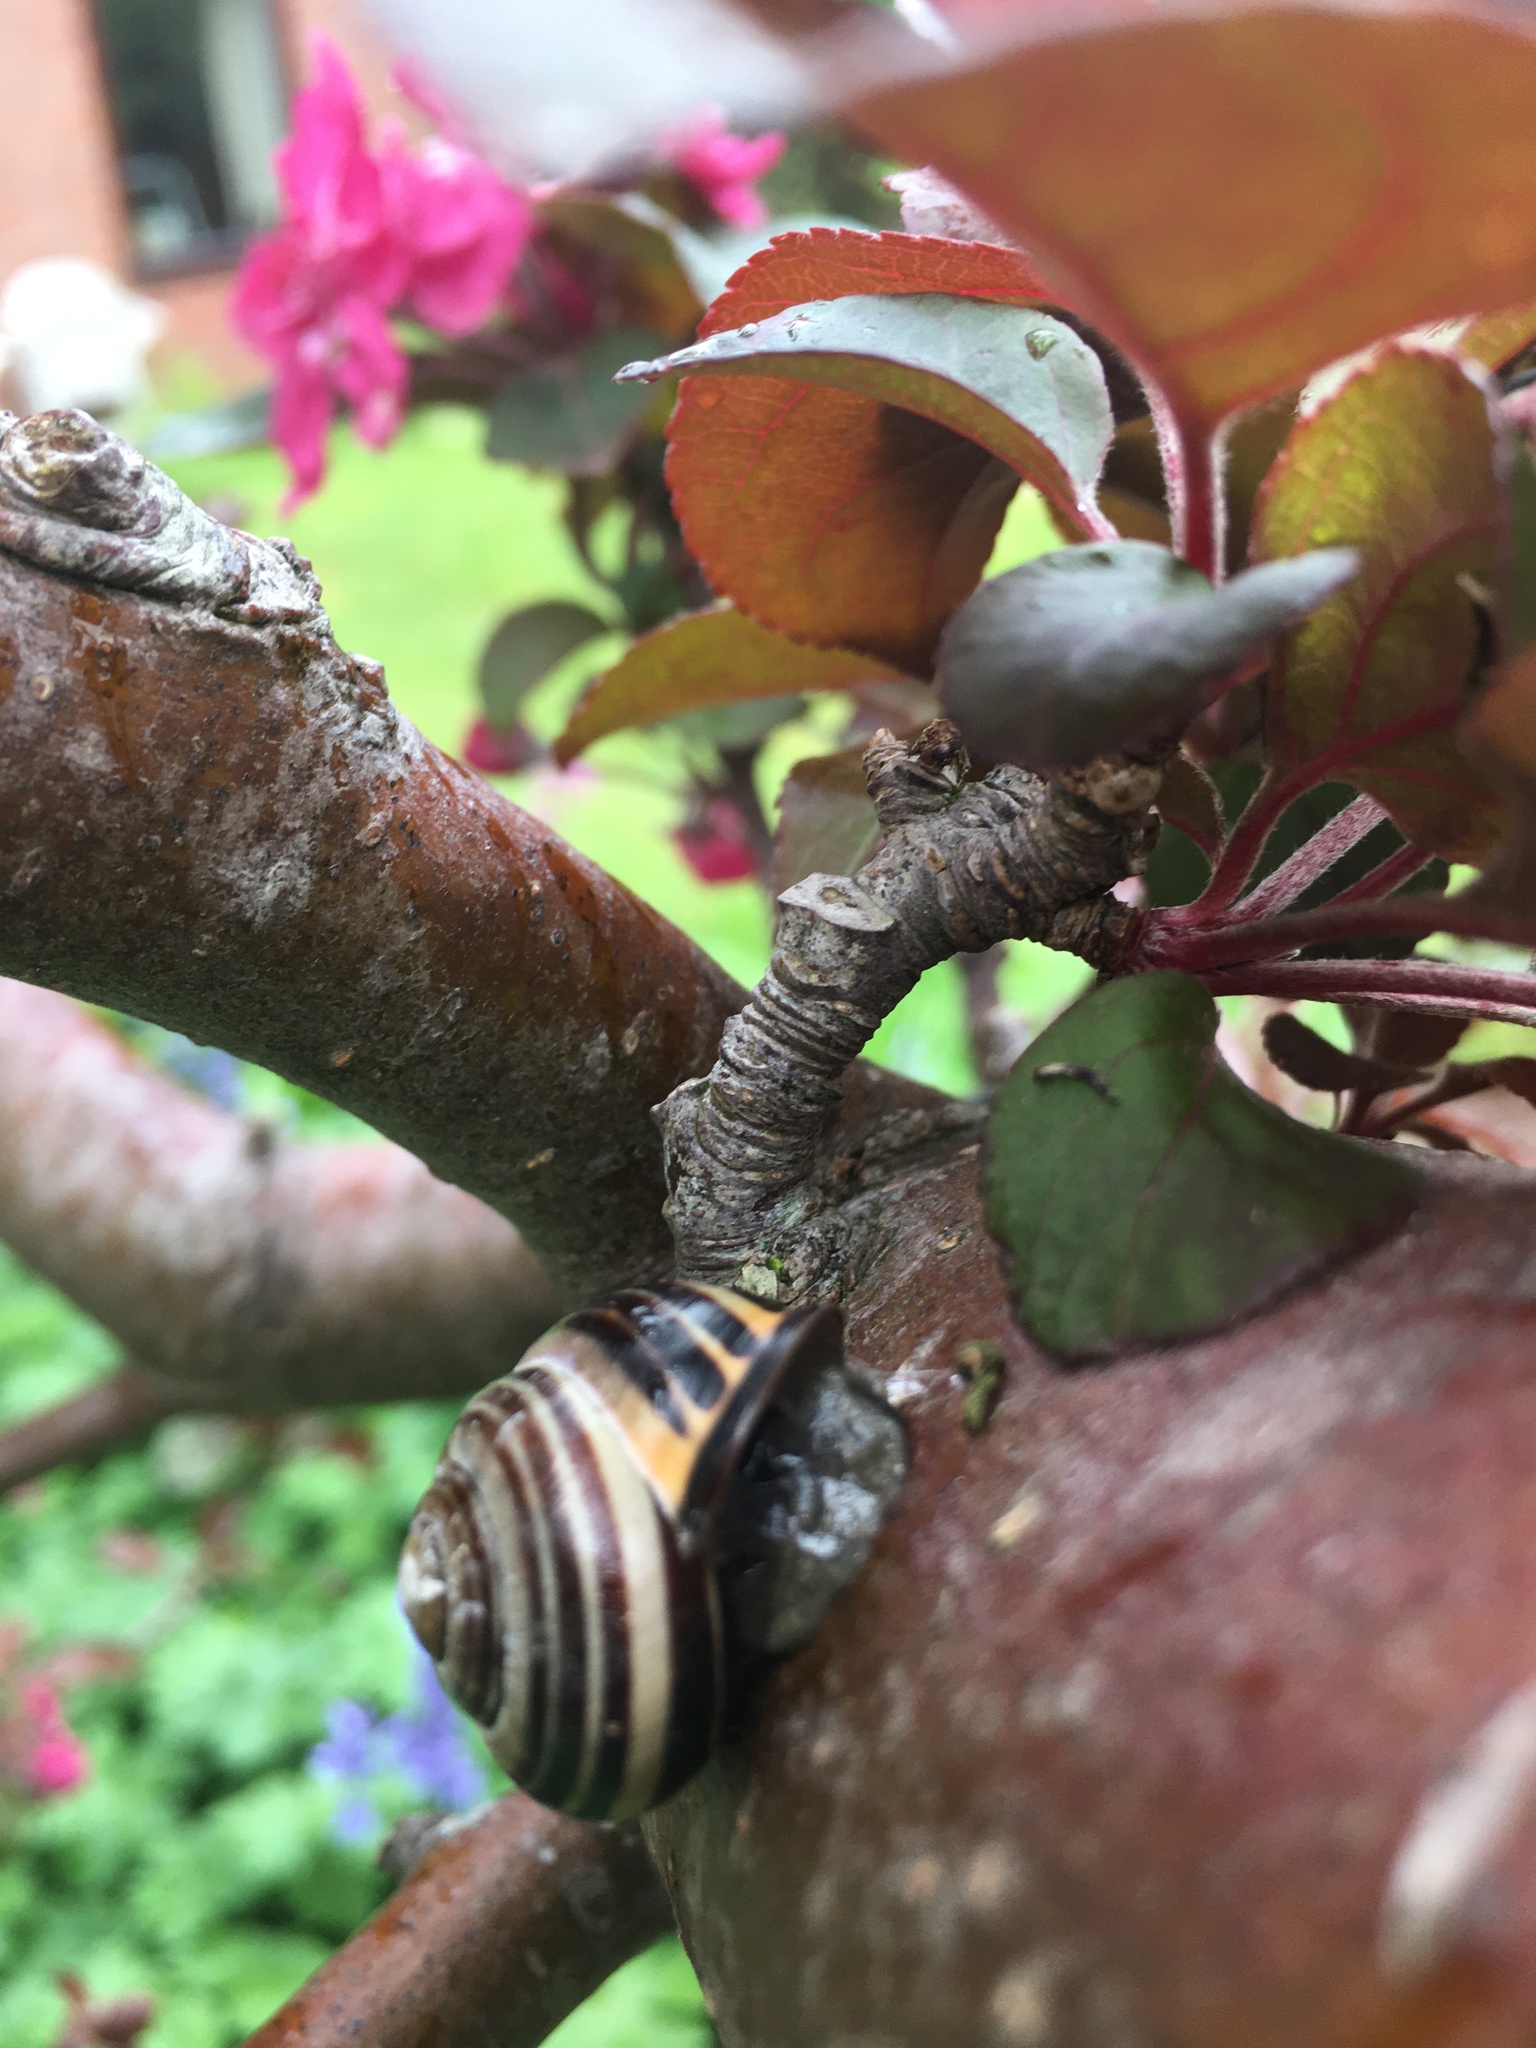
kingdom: Animalia
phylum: Mollusca
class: Gastropoda
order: Stylommatophora
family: Helicidae
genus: Cepaea
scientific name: Cepaea nemoralis
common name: Grovesnail
